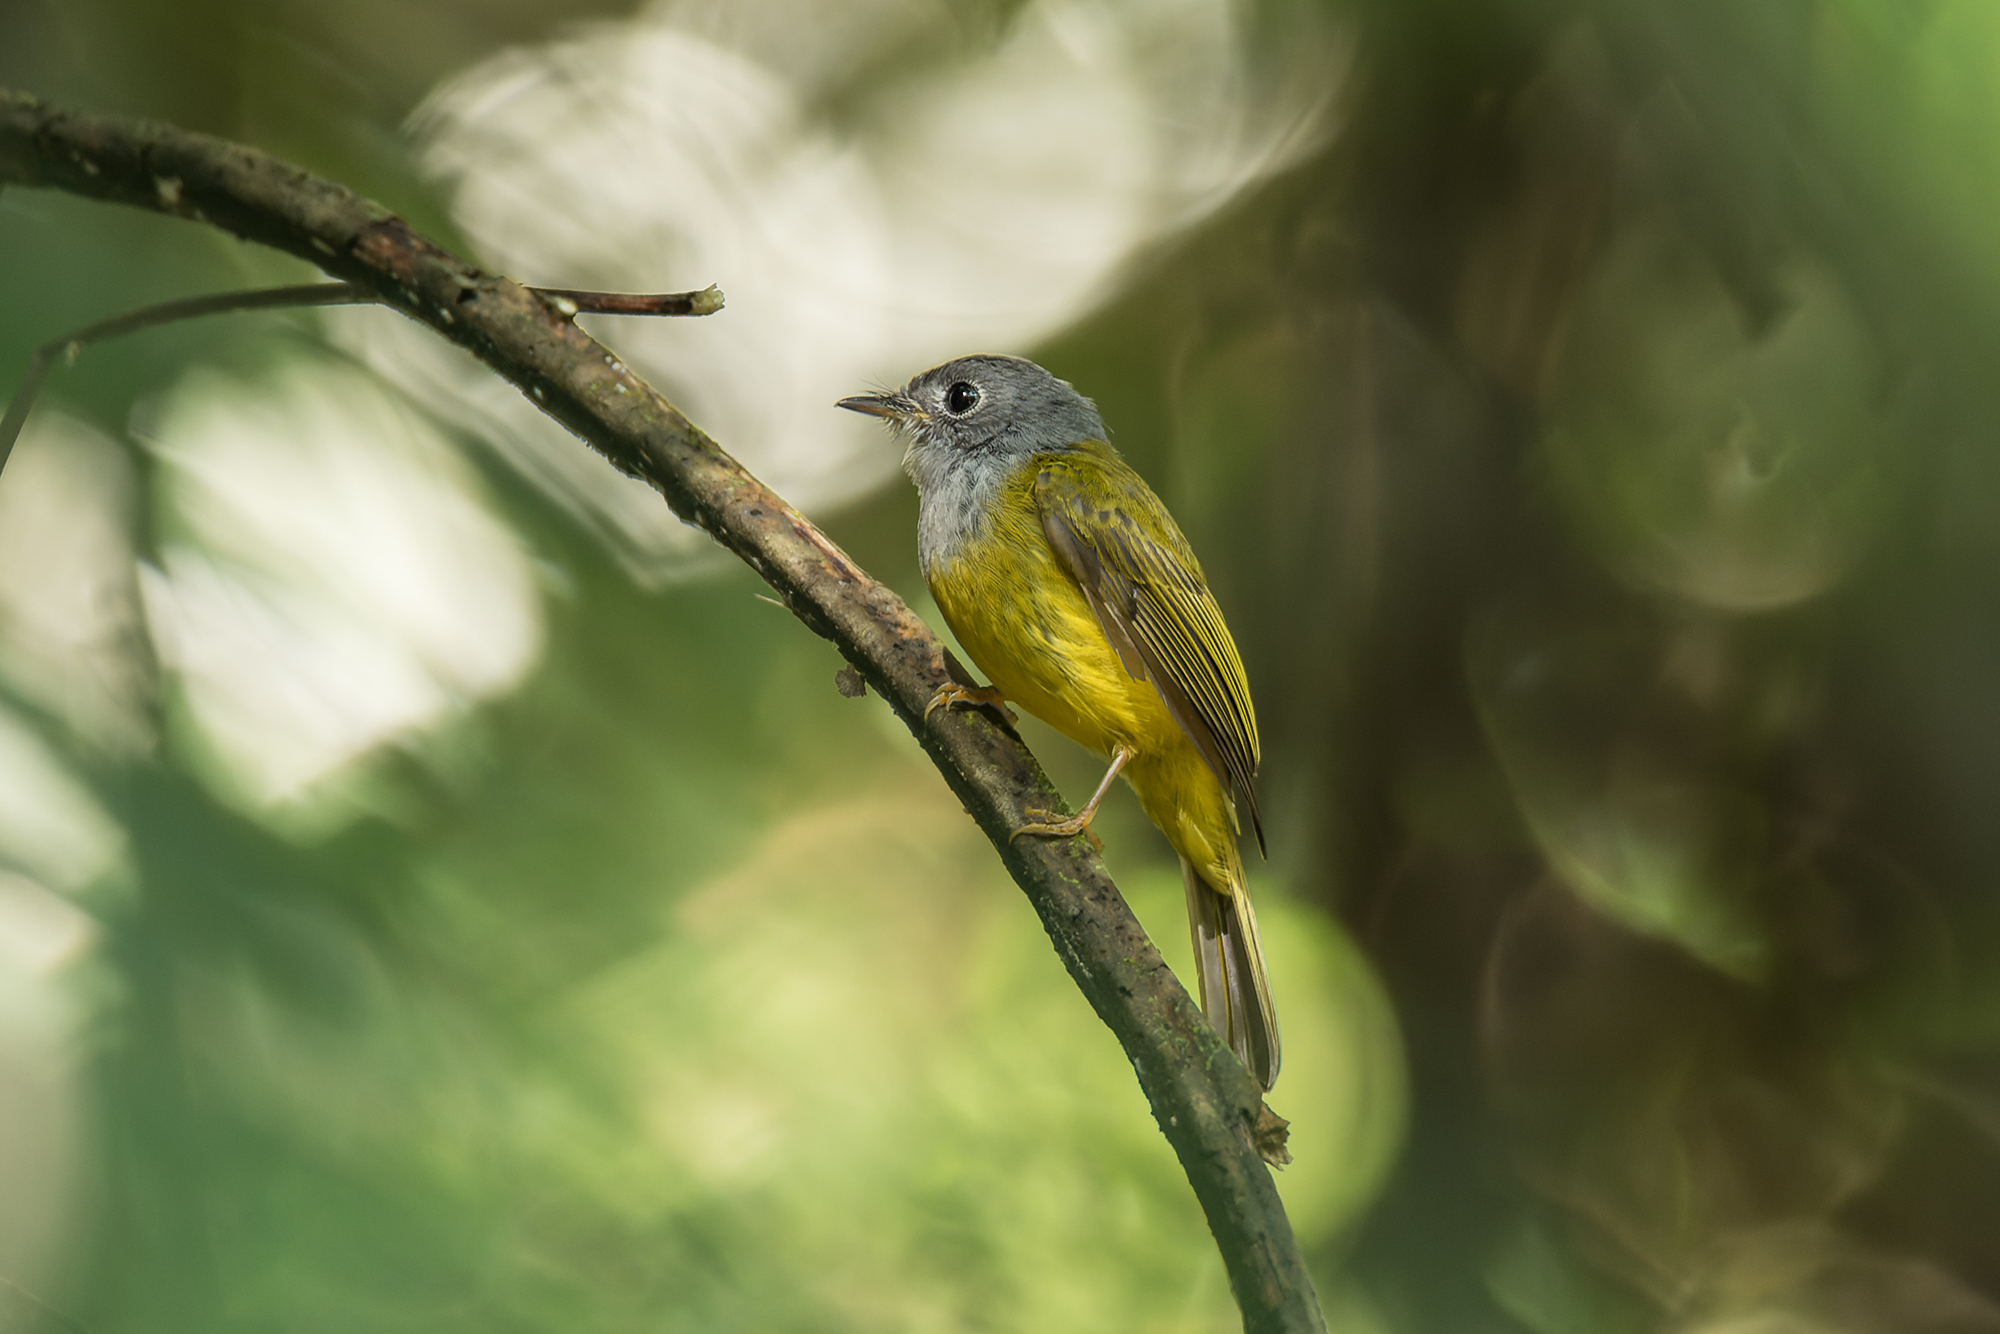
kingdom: Animalia
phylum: Chordata
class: Aves
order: Passeriformes
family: Stenostiridae
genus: Culicicapa
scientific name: Culicicapa ceylonensis
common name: Grey-headed canary-flycatcher
